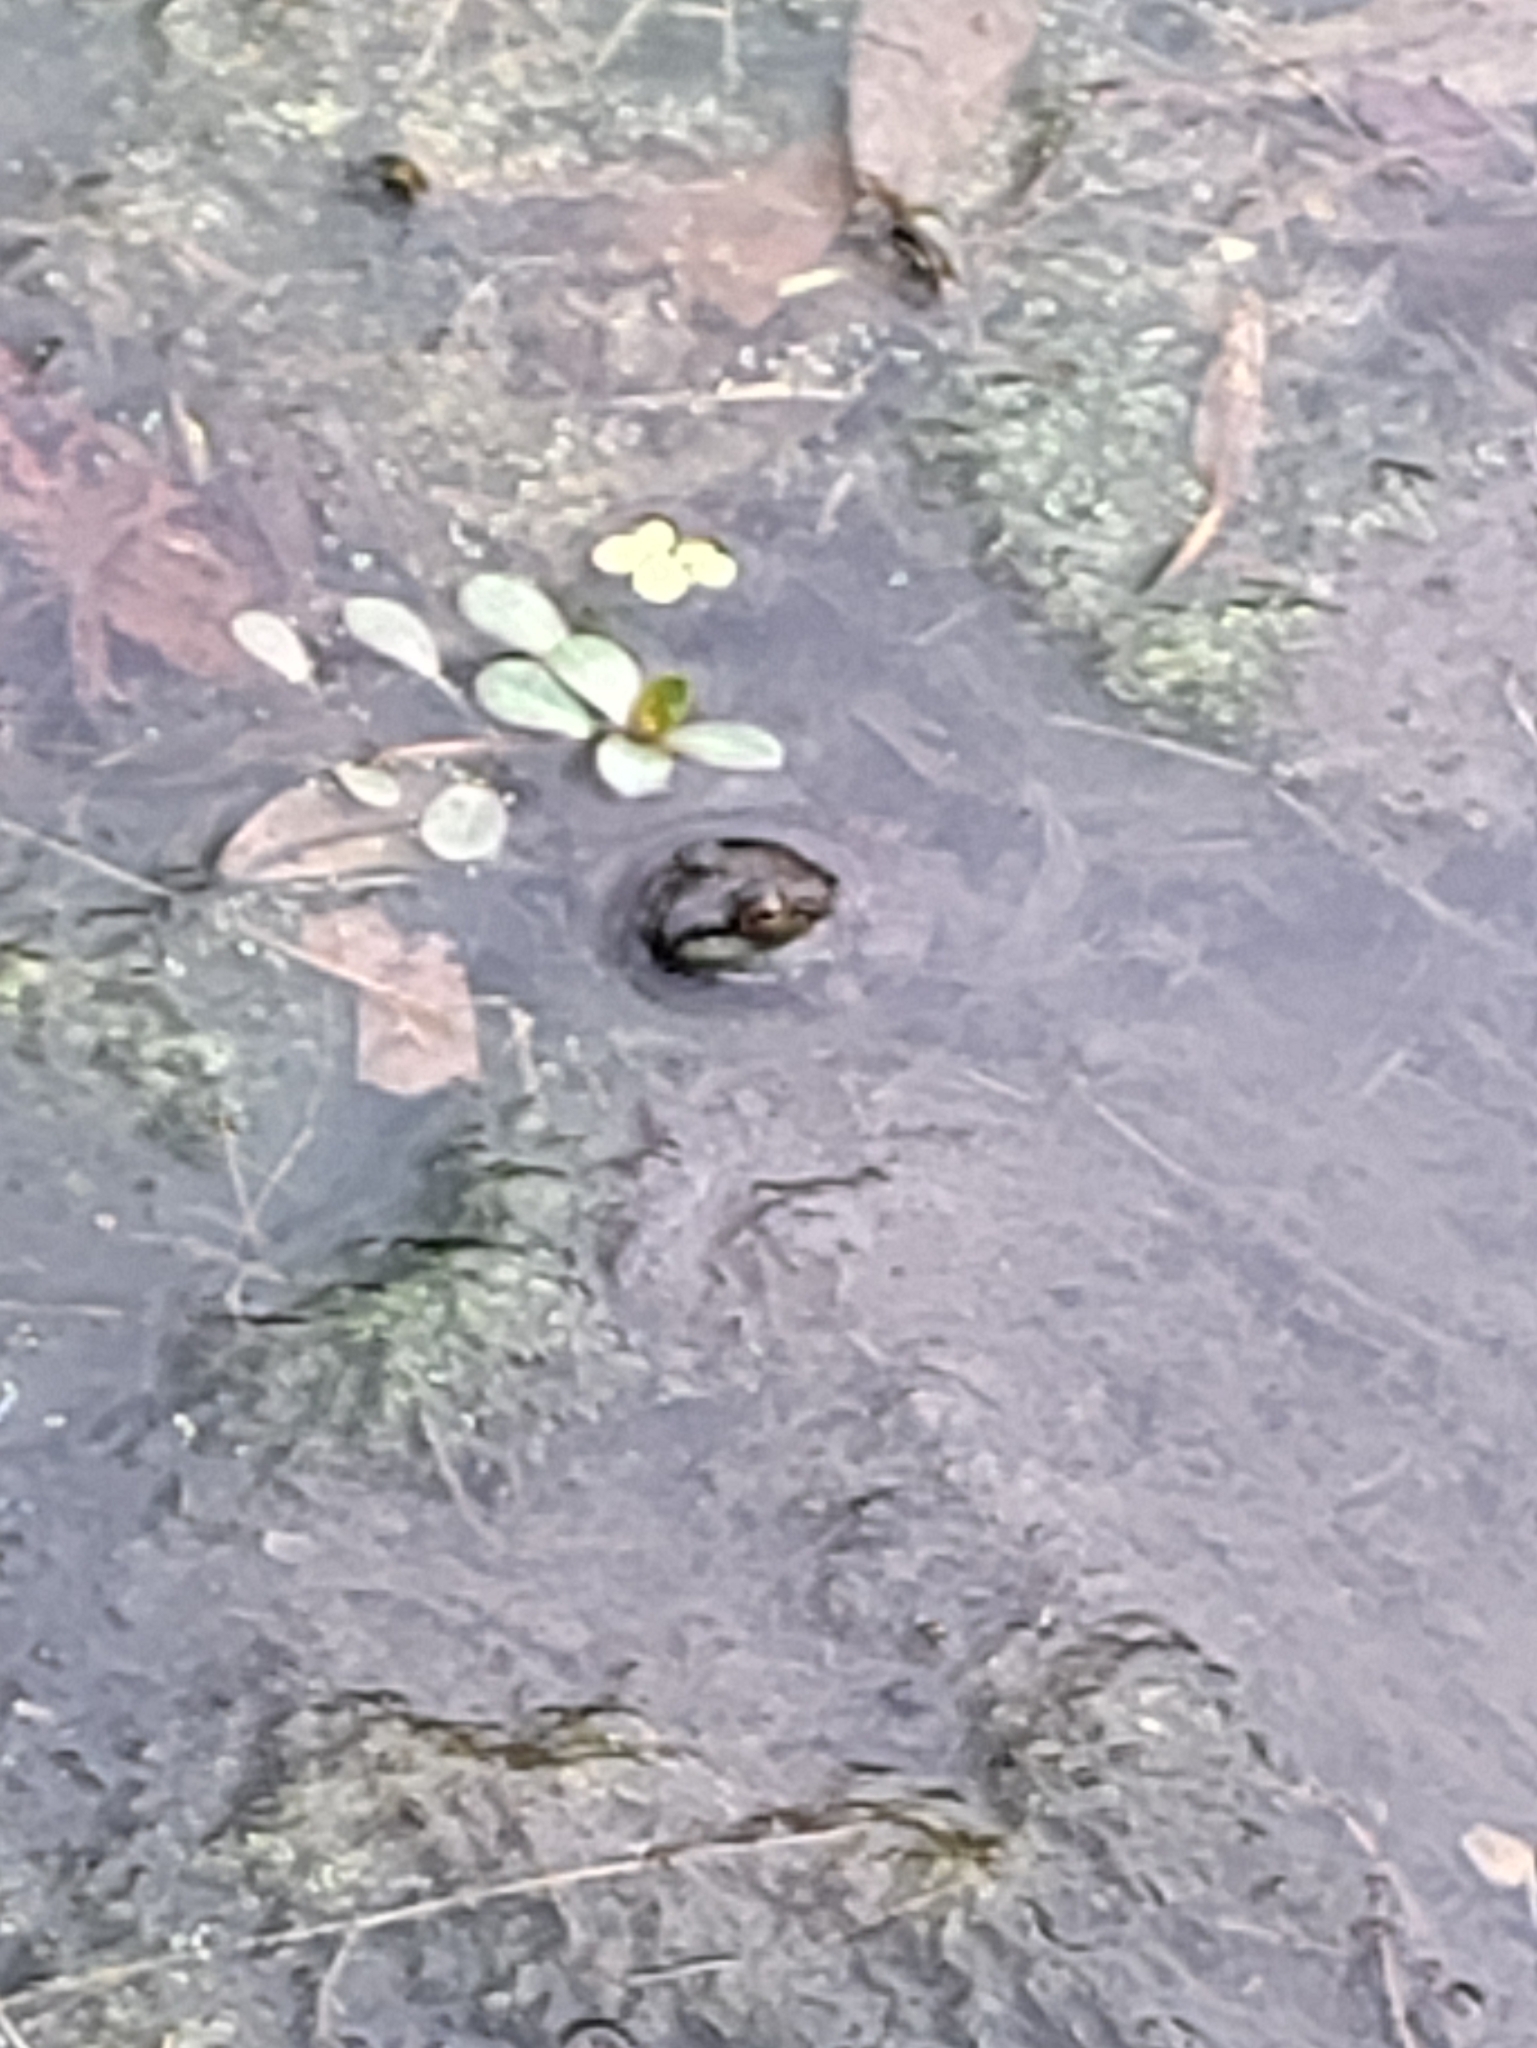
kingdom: Animalia
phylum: Chordata
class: Amphibia
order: Anura
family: Ranidae
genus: Lithobates
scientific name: Lithobates clamitans
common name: Green frog
